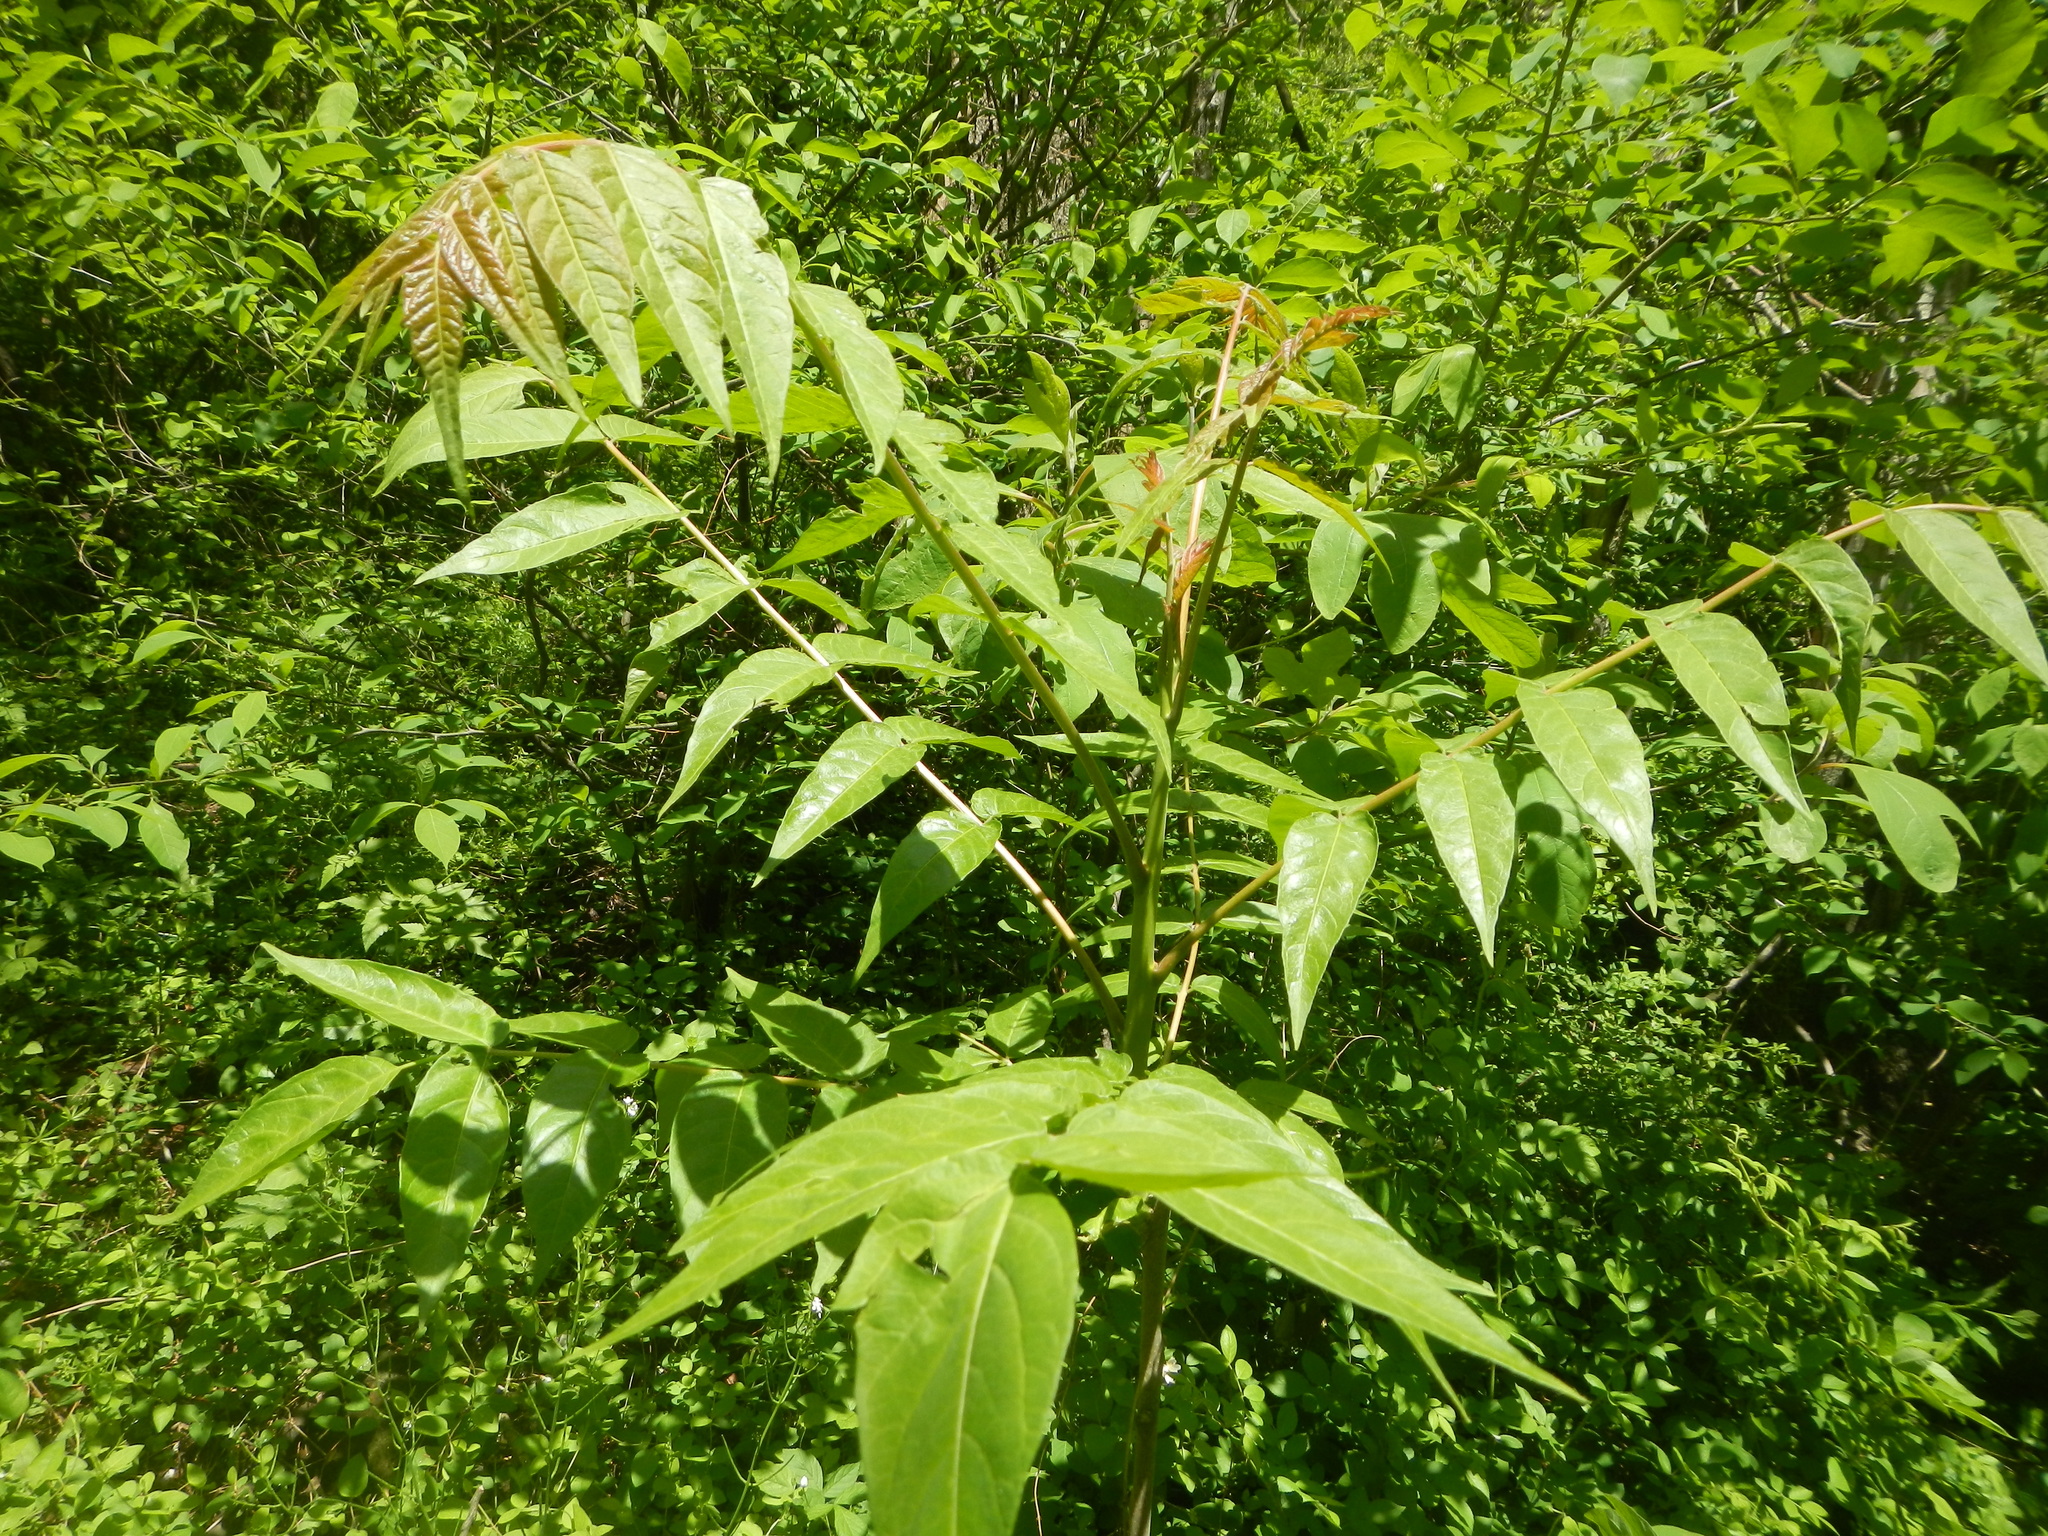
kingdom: Plantae
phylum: Tracheophyta
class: Magnoliopsida
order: Sapindales
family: Simaroubaceae
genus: Ailanthus
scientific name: Ailanthus altissima
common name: Tree-of-heaven
